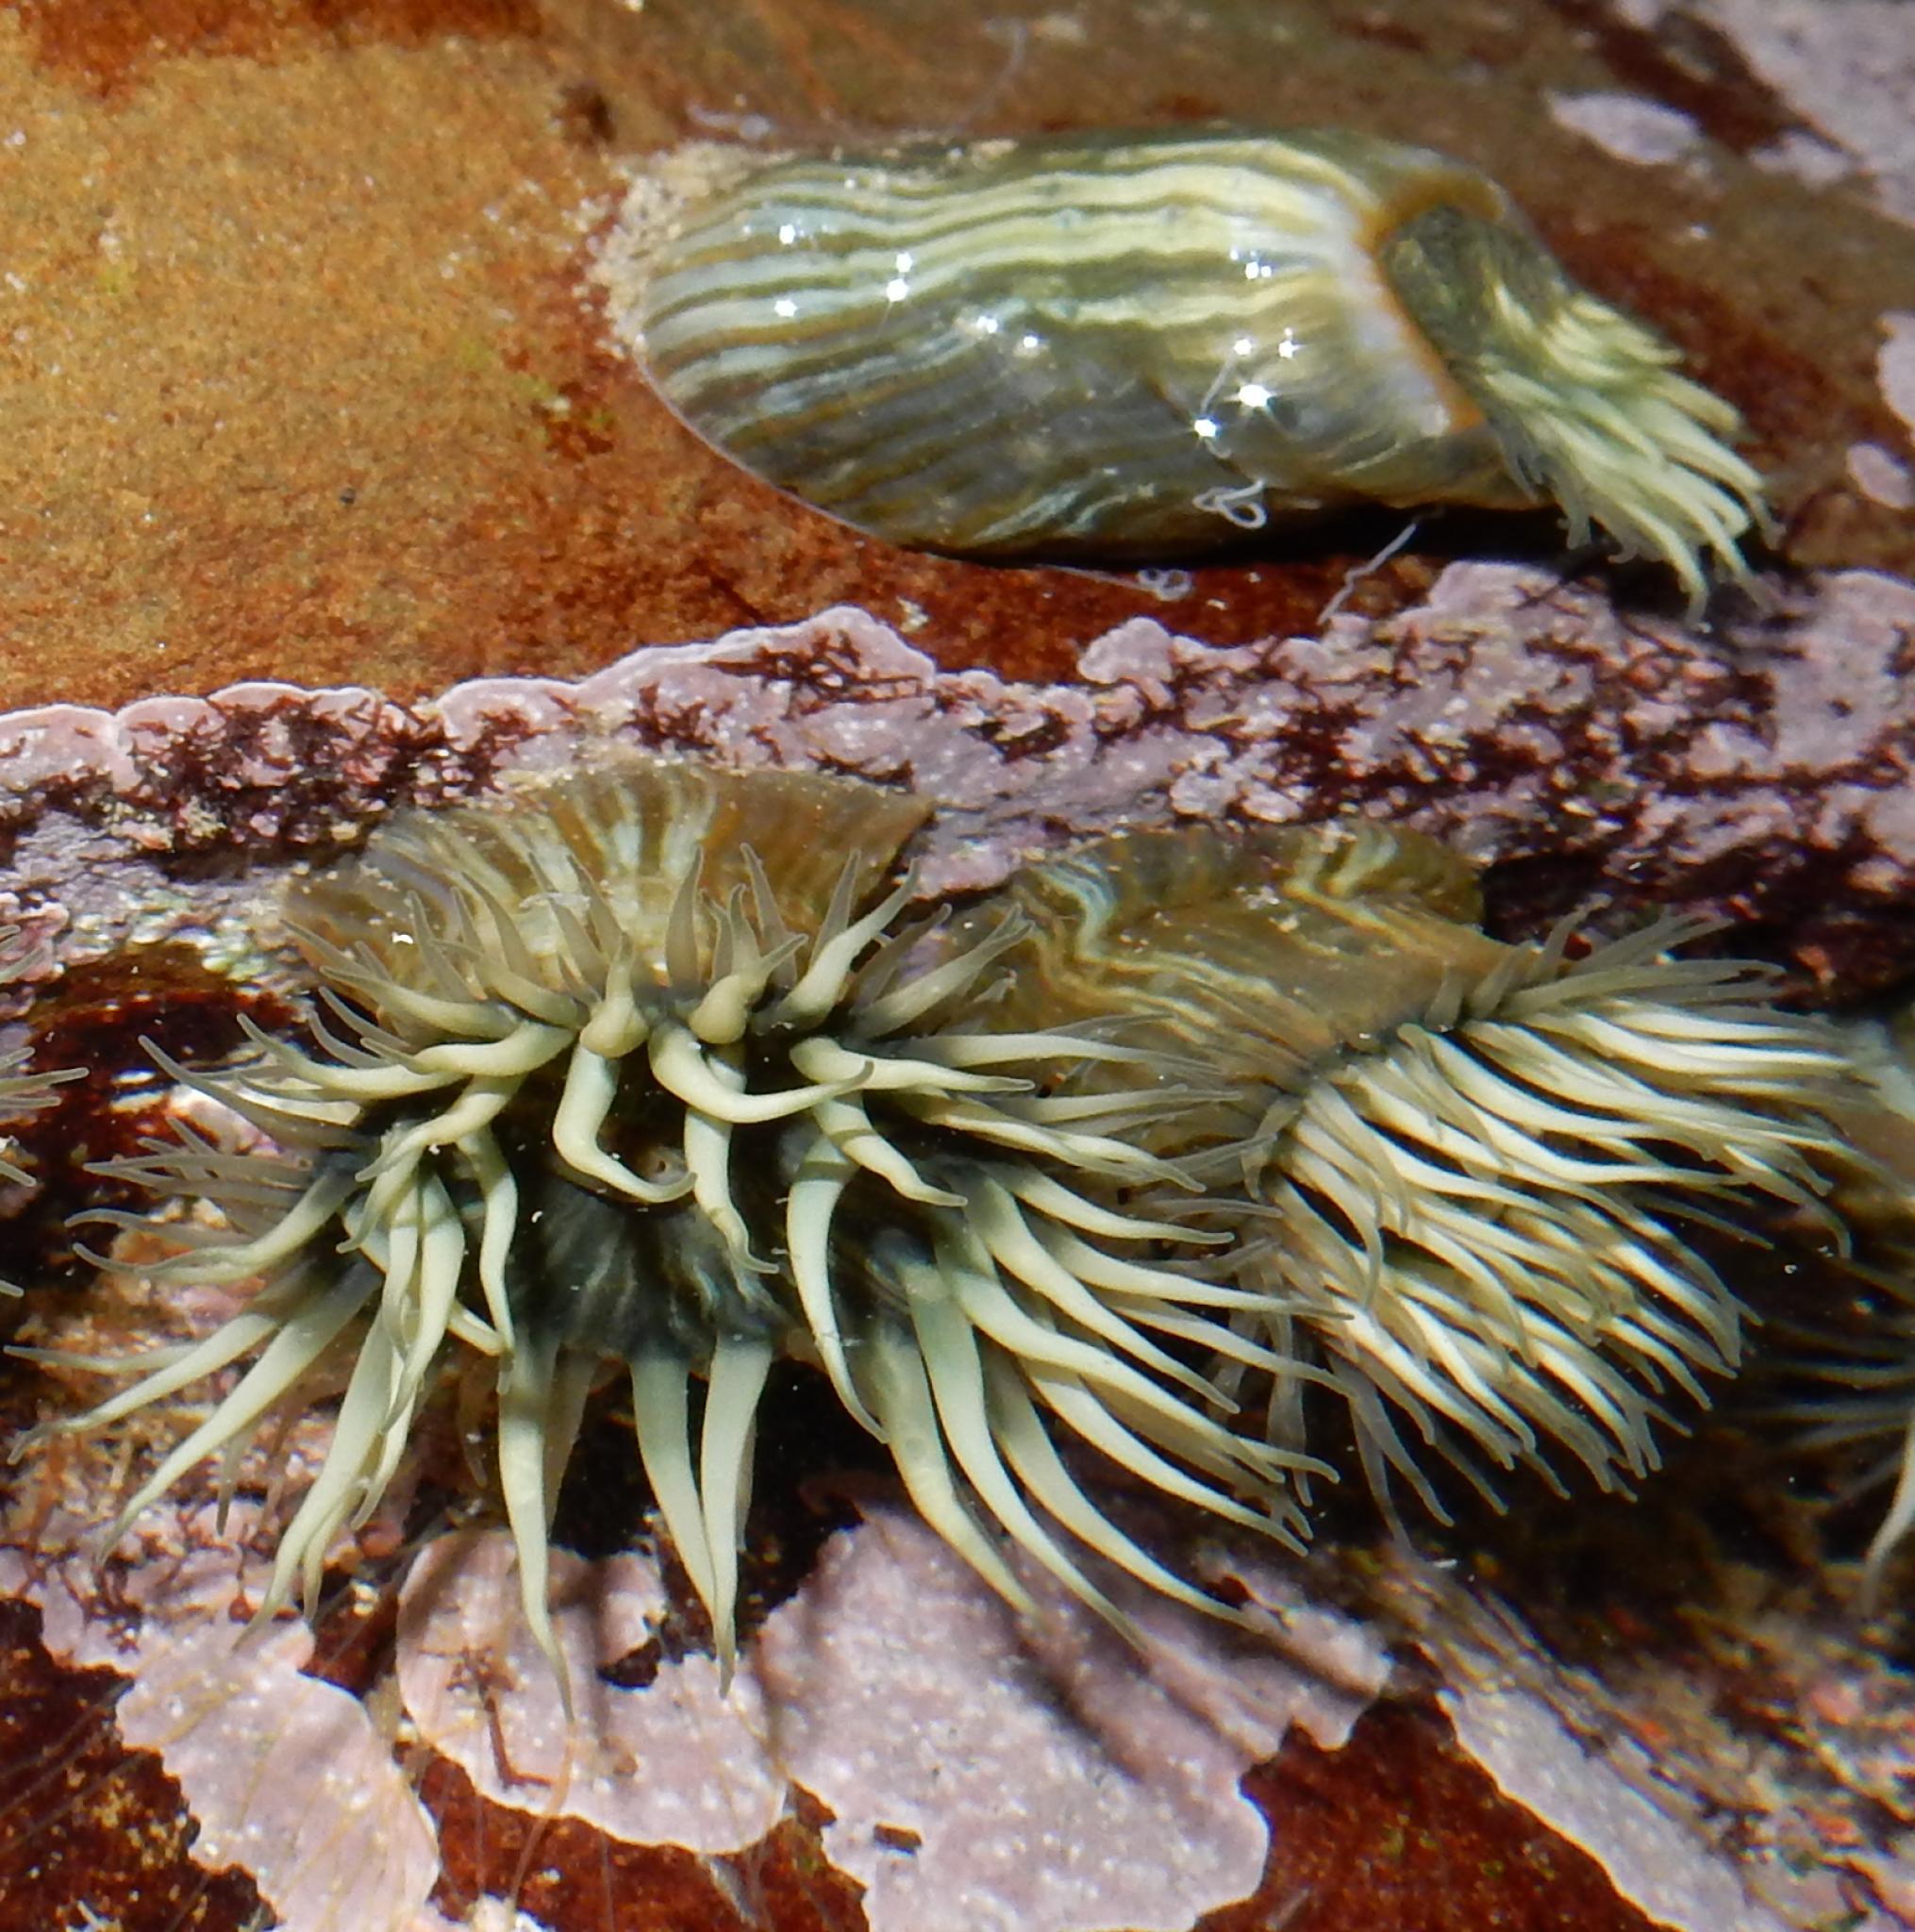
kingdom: Animalia
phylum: Cnidaria
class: Anthozoa
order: Actiniaria
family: Sagartiidae
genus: Anthothoe
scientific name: Anthothoe stimpsonii
